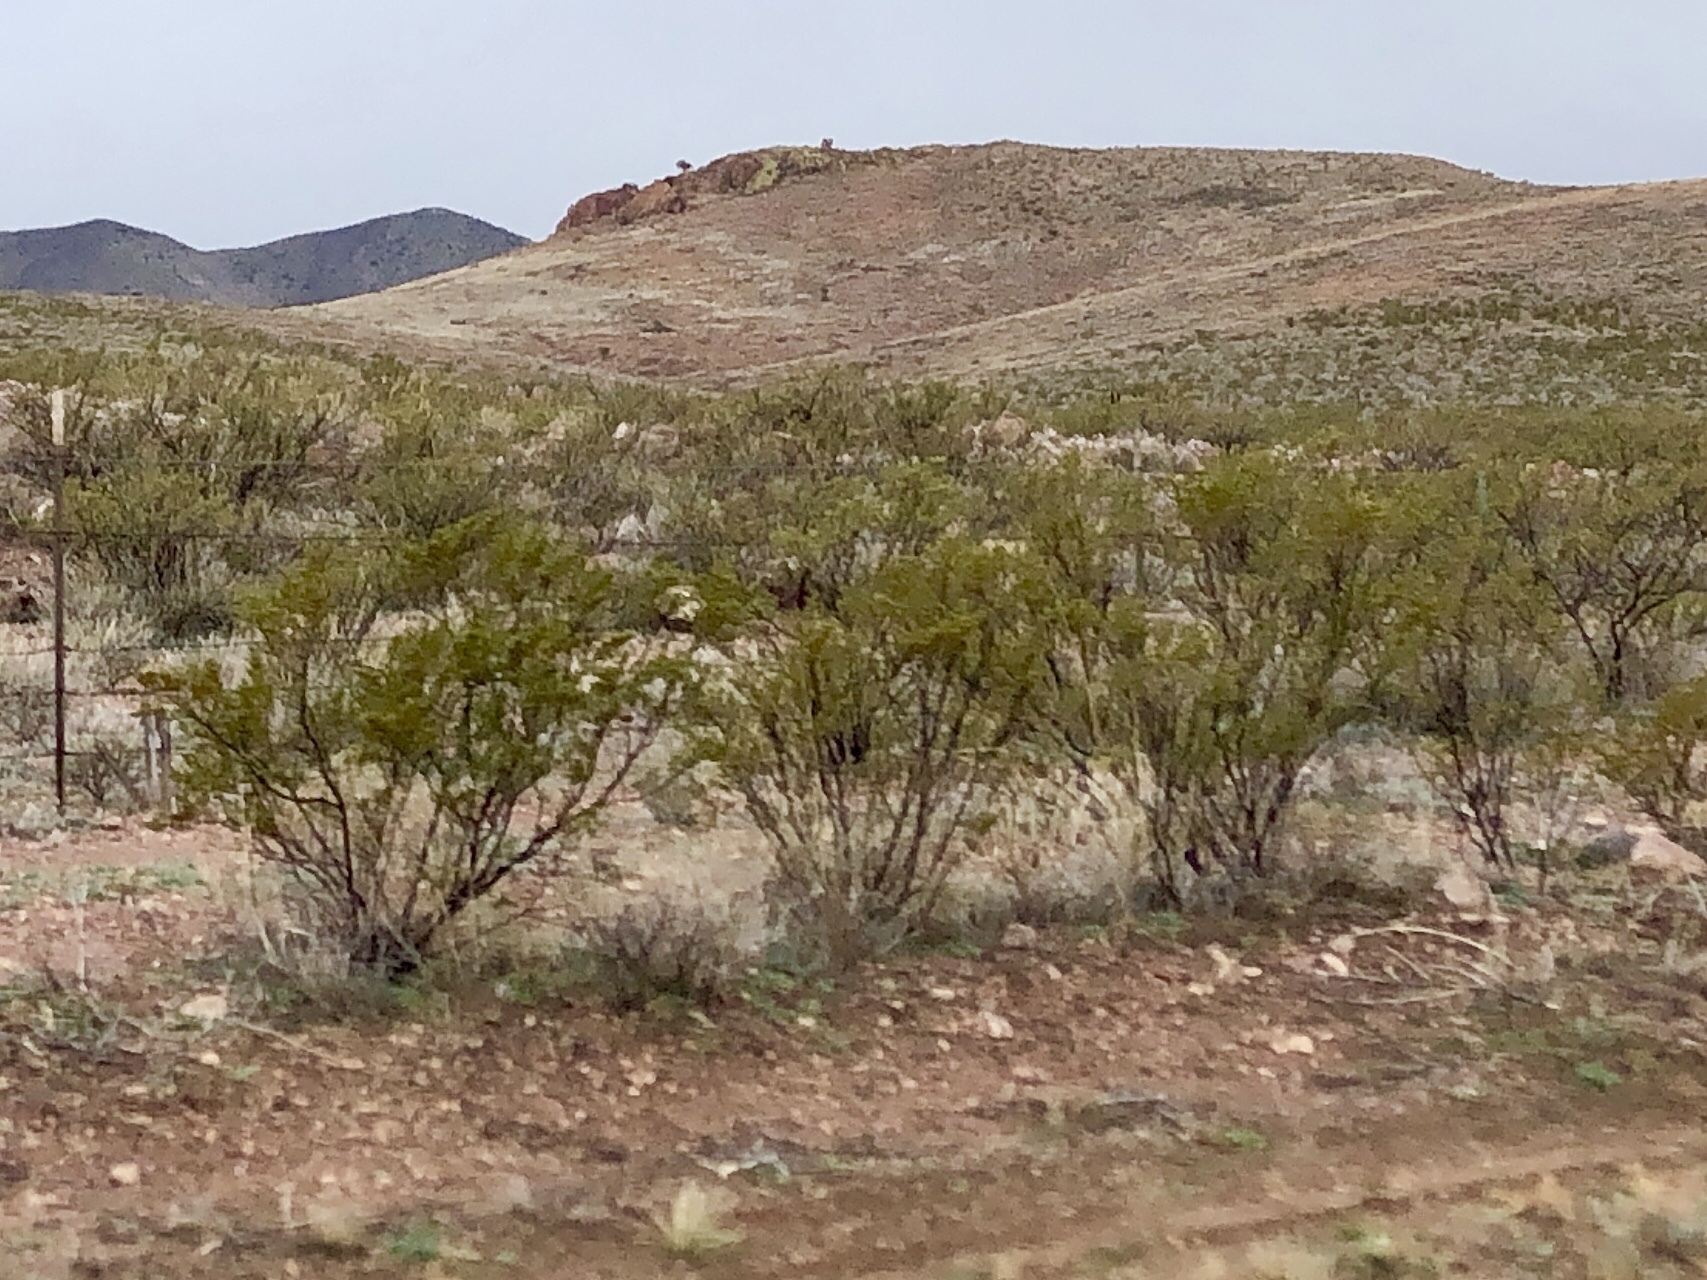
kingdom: Plantae
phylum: Tracheophyta
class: Magnoliopsida
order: Zygophyllales
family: Zygophyllaceae
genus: Larrea
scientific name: Larrea tridentata
